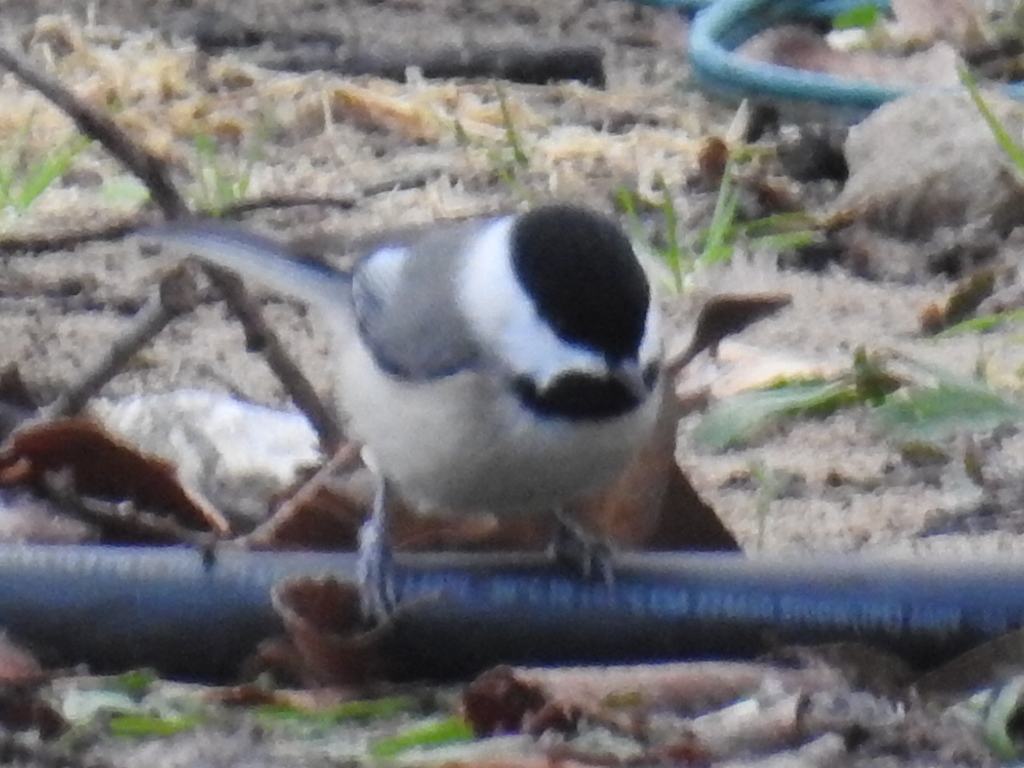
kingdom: Animalia
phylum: Chordata
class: Aves
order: Passeriformes
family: Paridae
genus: Poecile
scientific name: Poecile carolinensis
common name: Carolina chickadee
